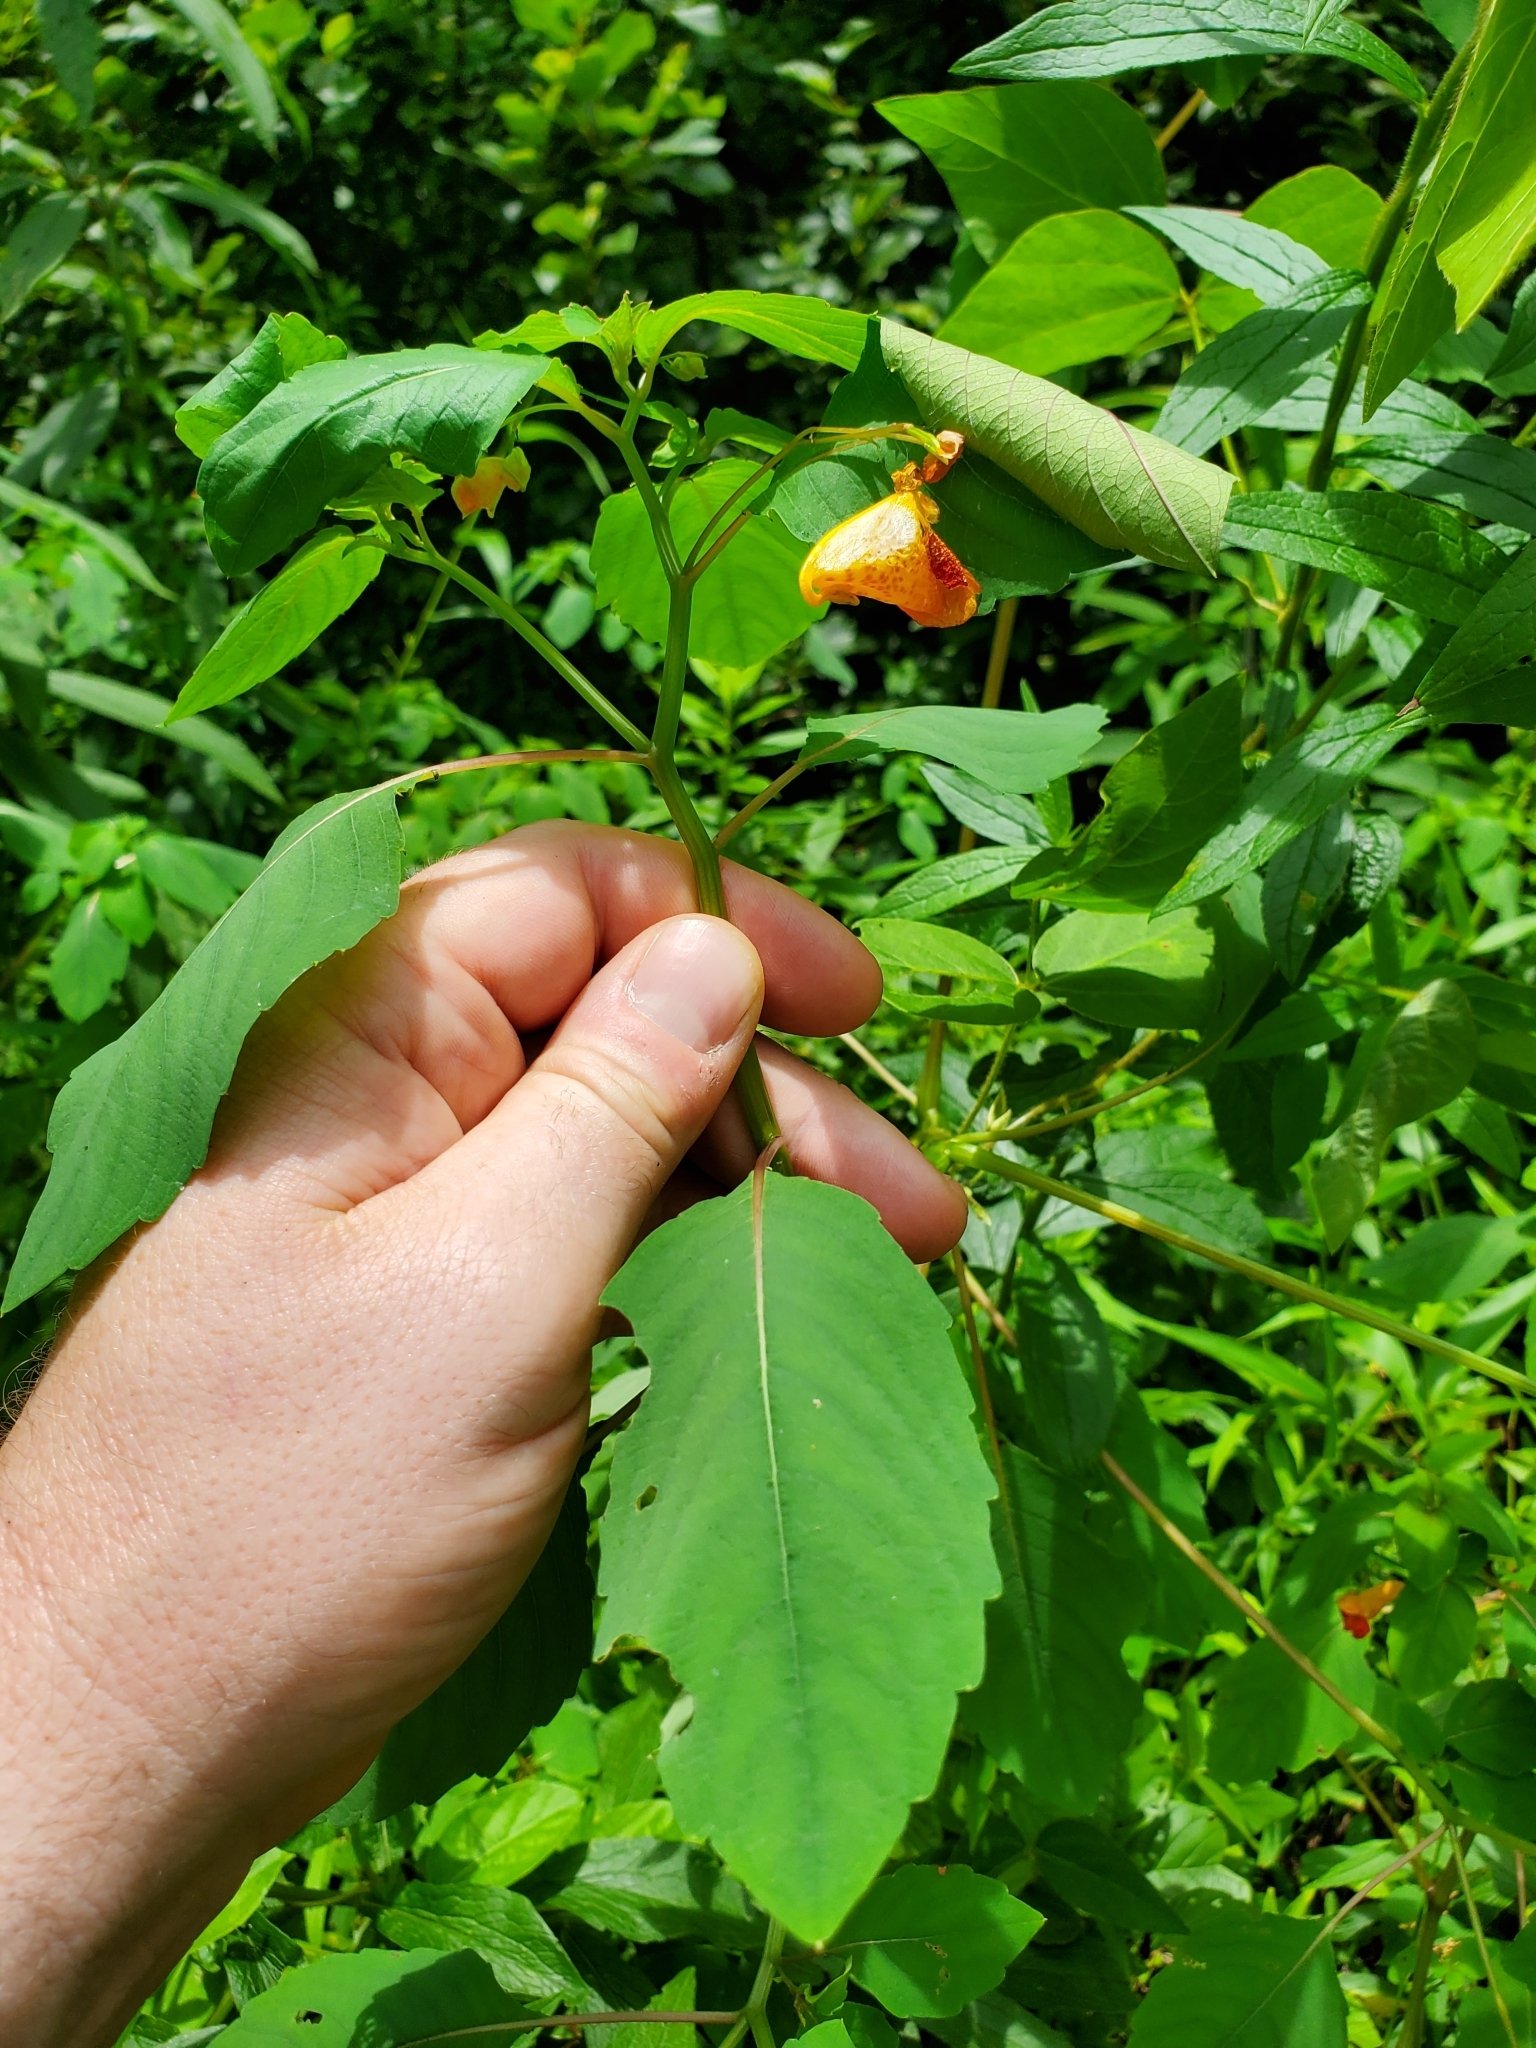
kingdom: Plantae
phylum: Tracheophyta
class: Magnoliopsida
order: Ericales
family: Balsaminaceae
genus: Impatiens
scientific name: Impatiens capensis
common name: Orange balsam
